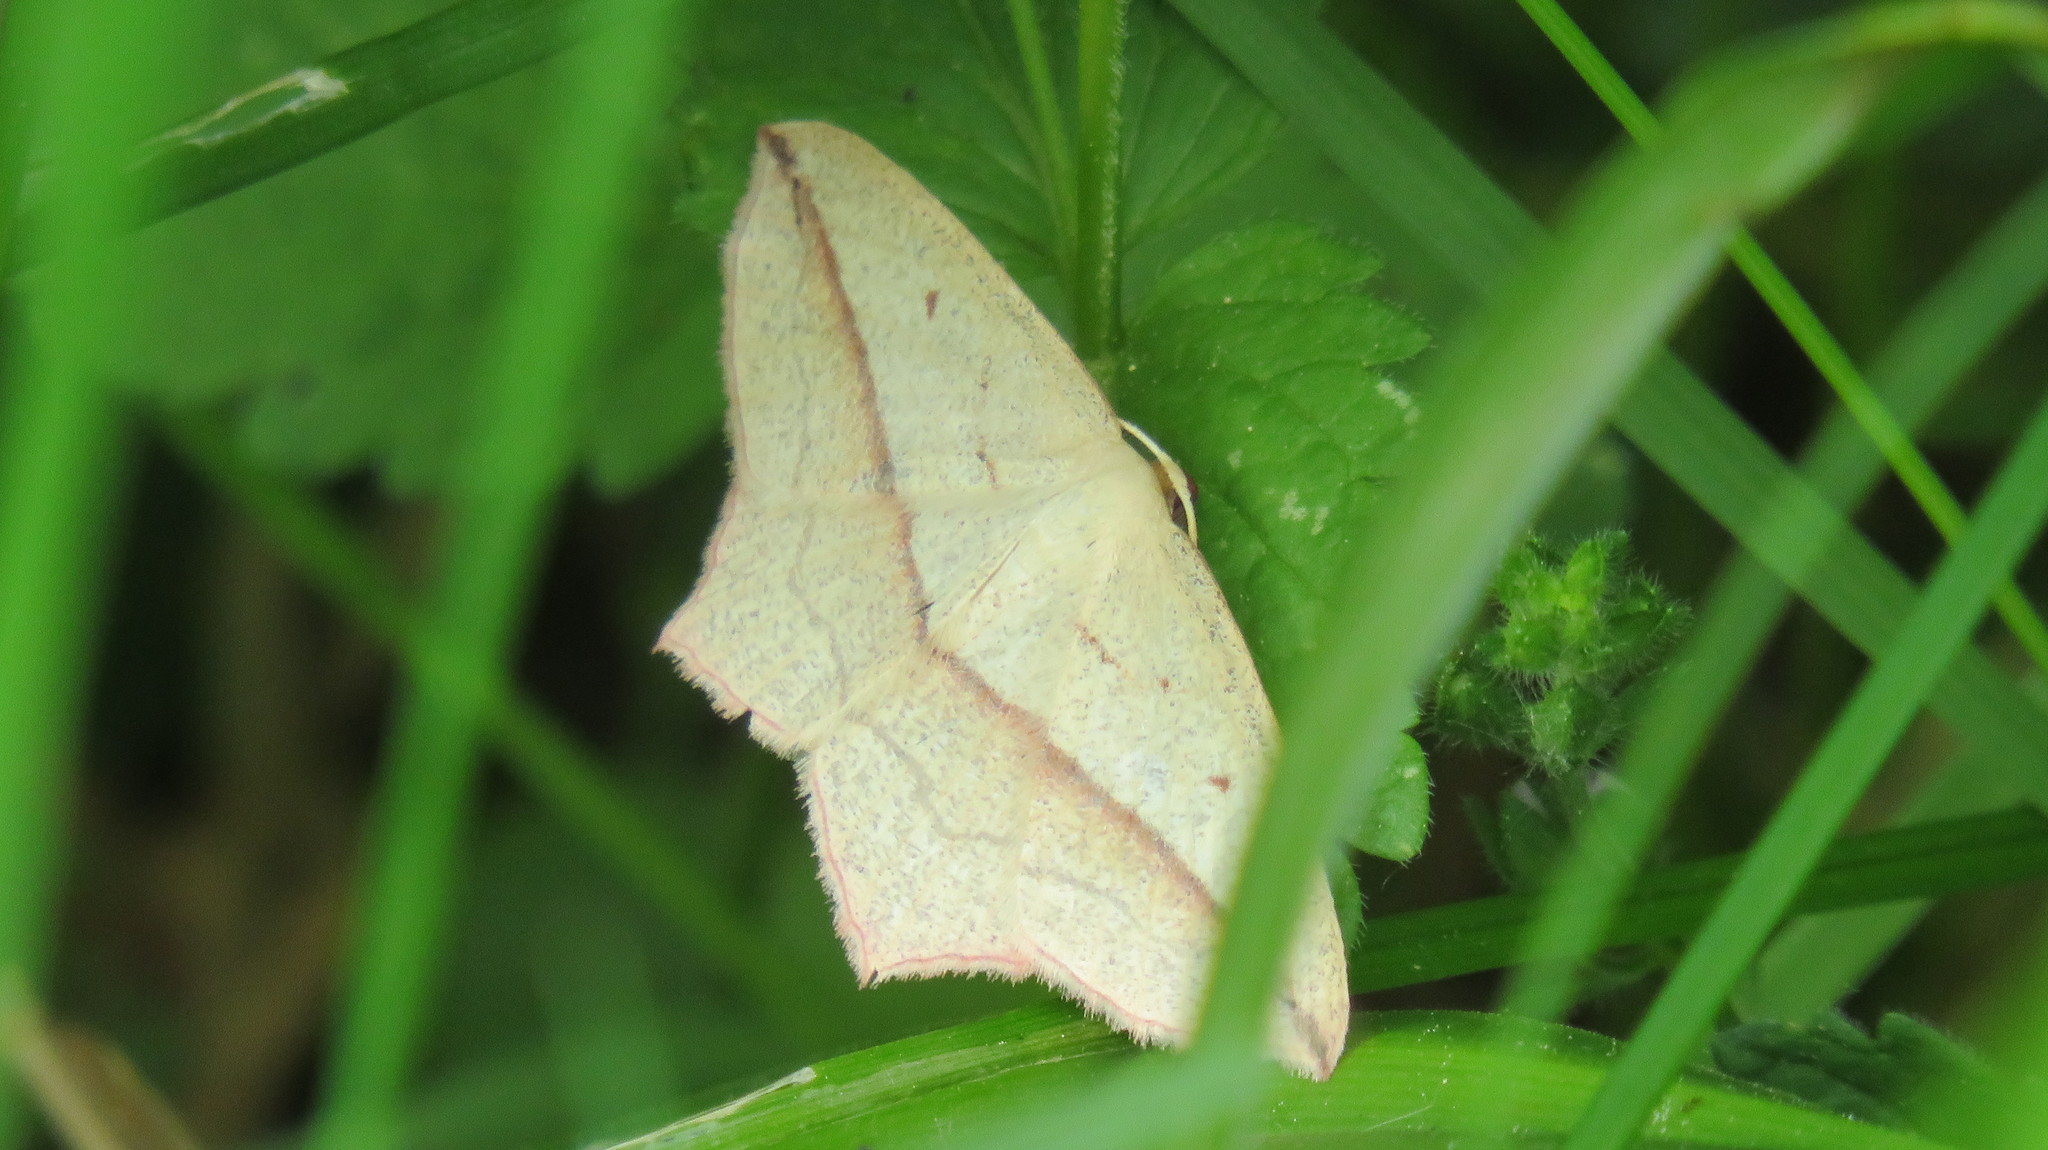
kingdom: Animalia
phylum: Arthropoda
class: Insecta
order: Lepidoptera
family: Geometridae
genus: Timandra
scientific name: Timandra comae
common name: Blood-vein
